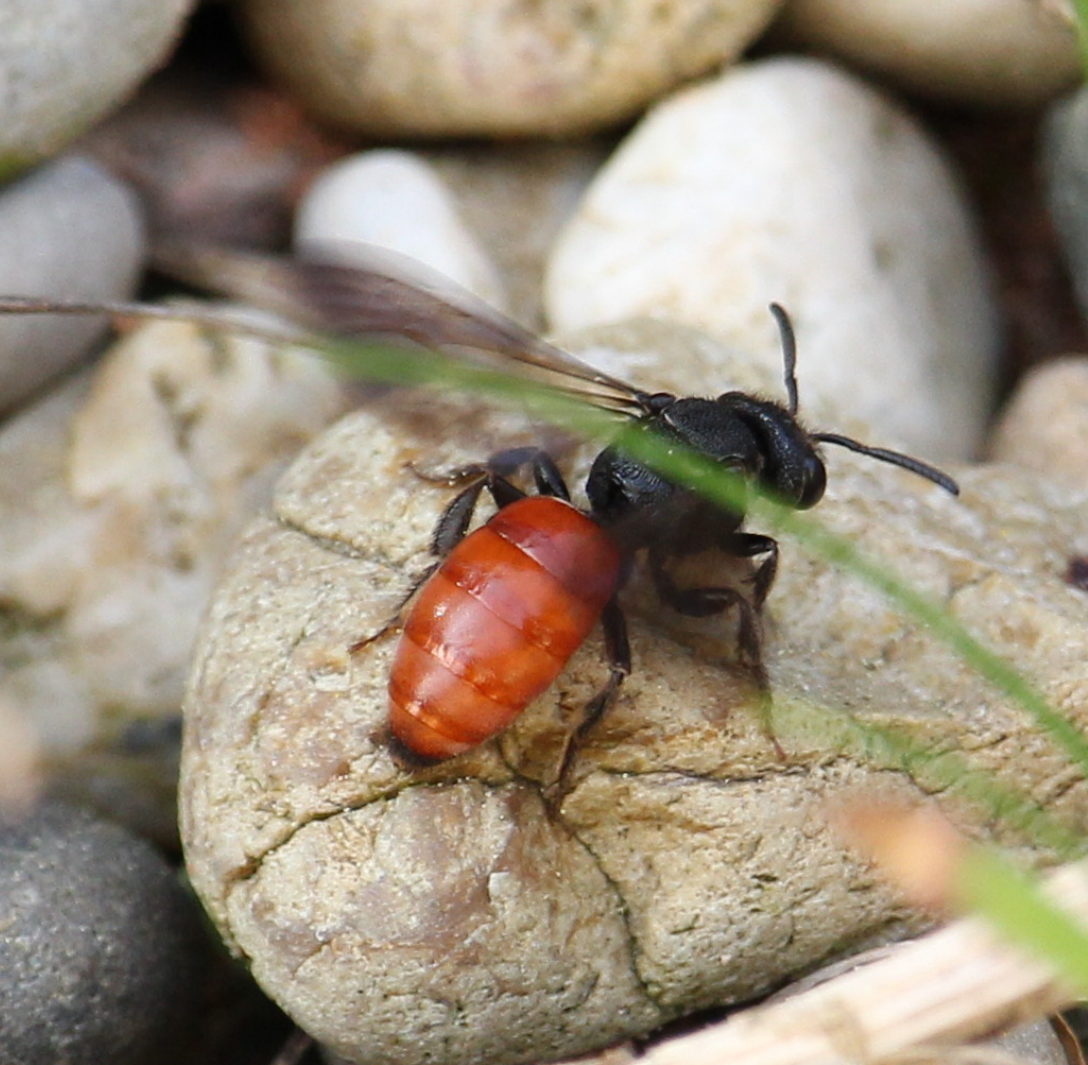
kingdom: Animalia
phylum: Arthropoda
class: Insecta
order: Hymenoptera
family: Halictidae
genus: Sphecodes
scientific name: Sphecodes albilabris
